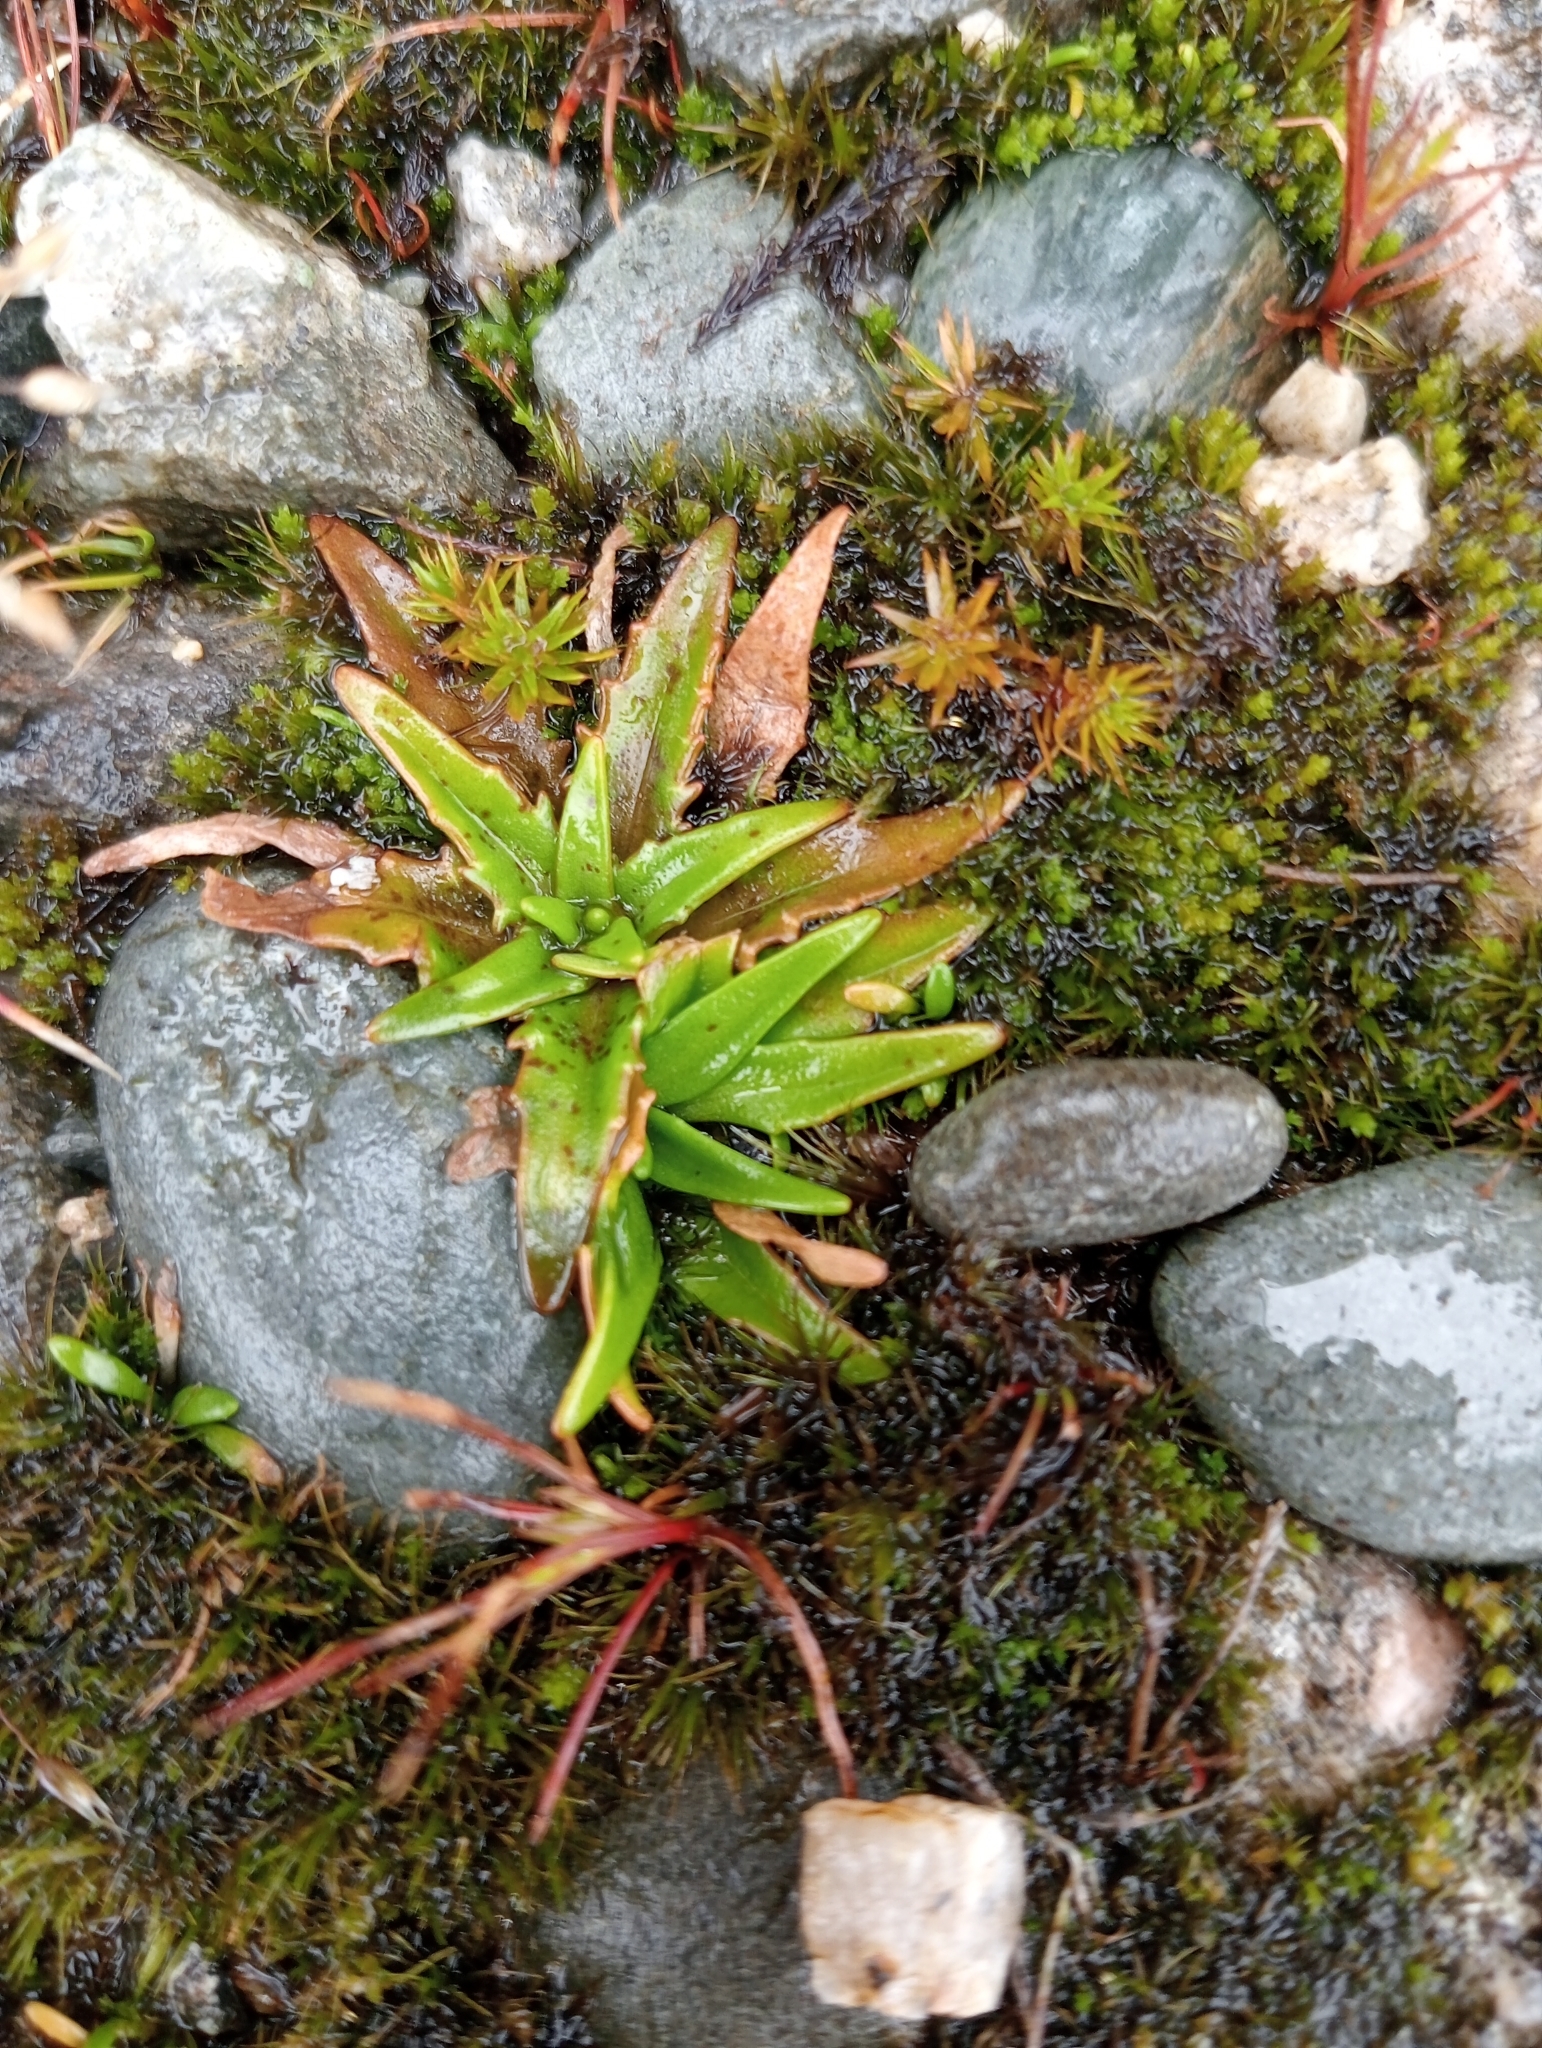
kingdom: Plantae
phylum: Tracheophyta
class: Magnoliopsida
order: Lamiales
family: Plantaginaceae
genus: Plantago
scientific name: Plantago triandra
